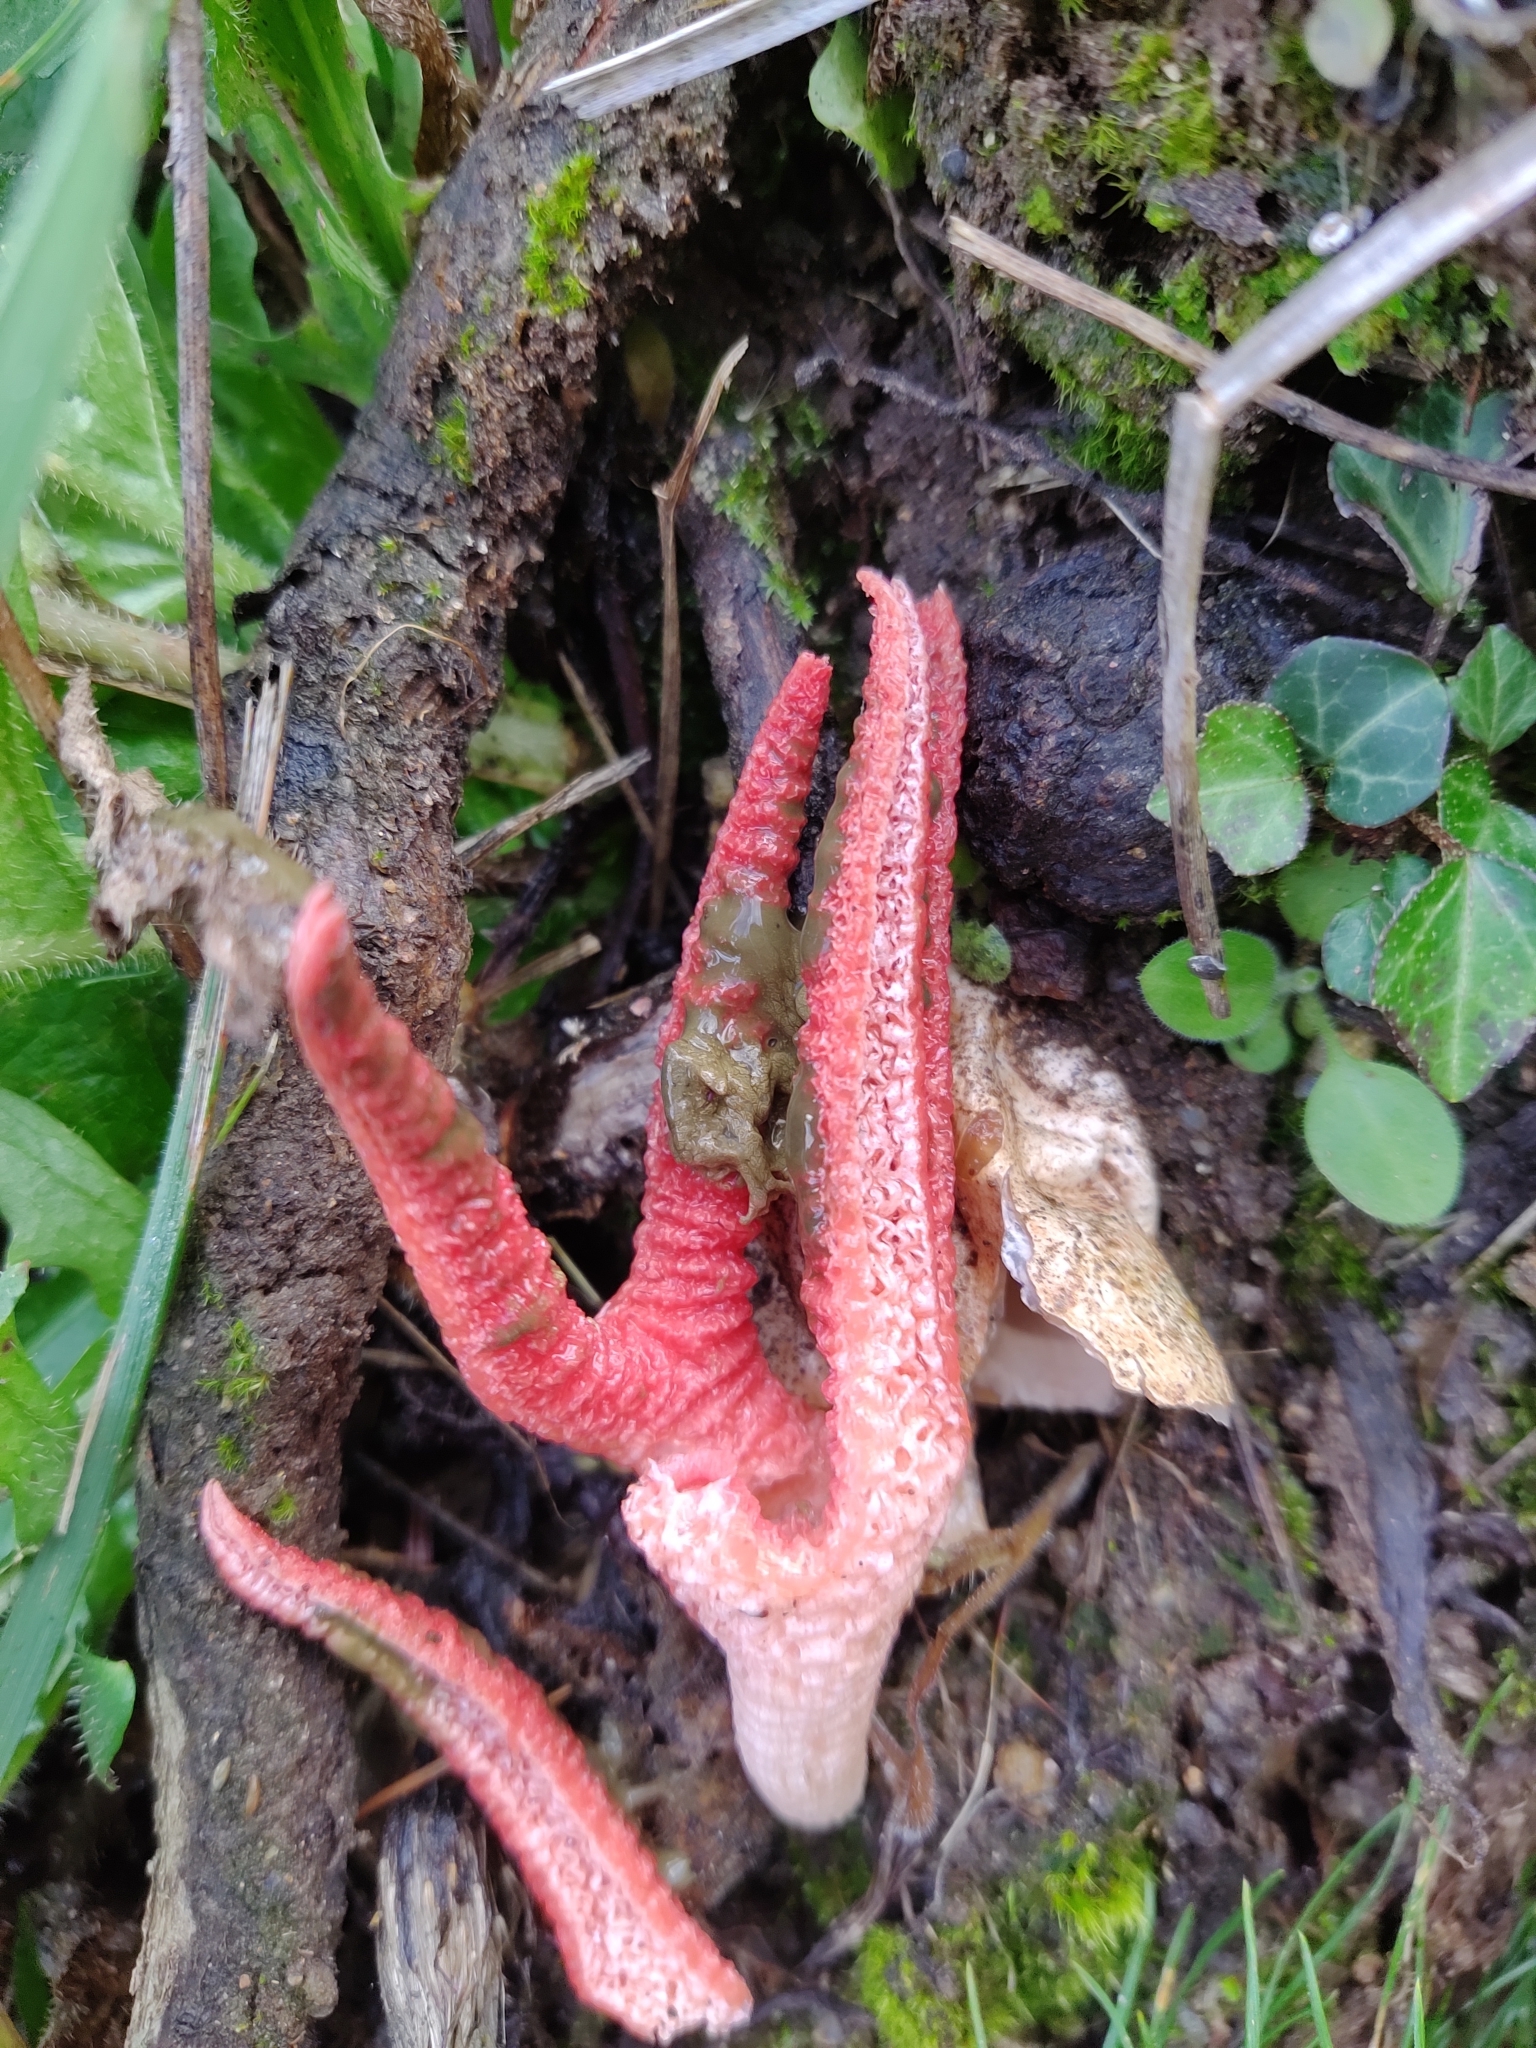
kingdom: Fungi
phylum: Basidiomycota
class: Agaricomycetes
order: Phallales
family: Phallaceae
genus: Clathrus
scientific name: Clathrus archeri
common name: Devil's fingers
